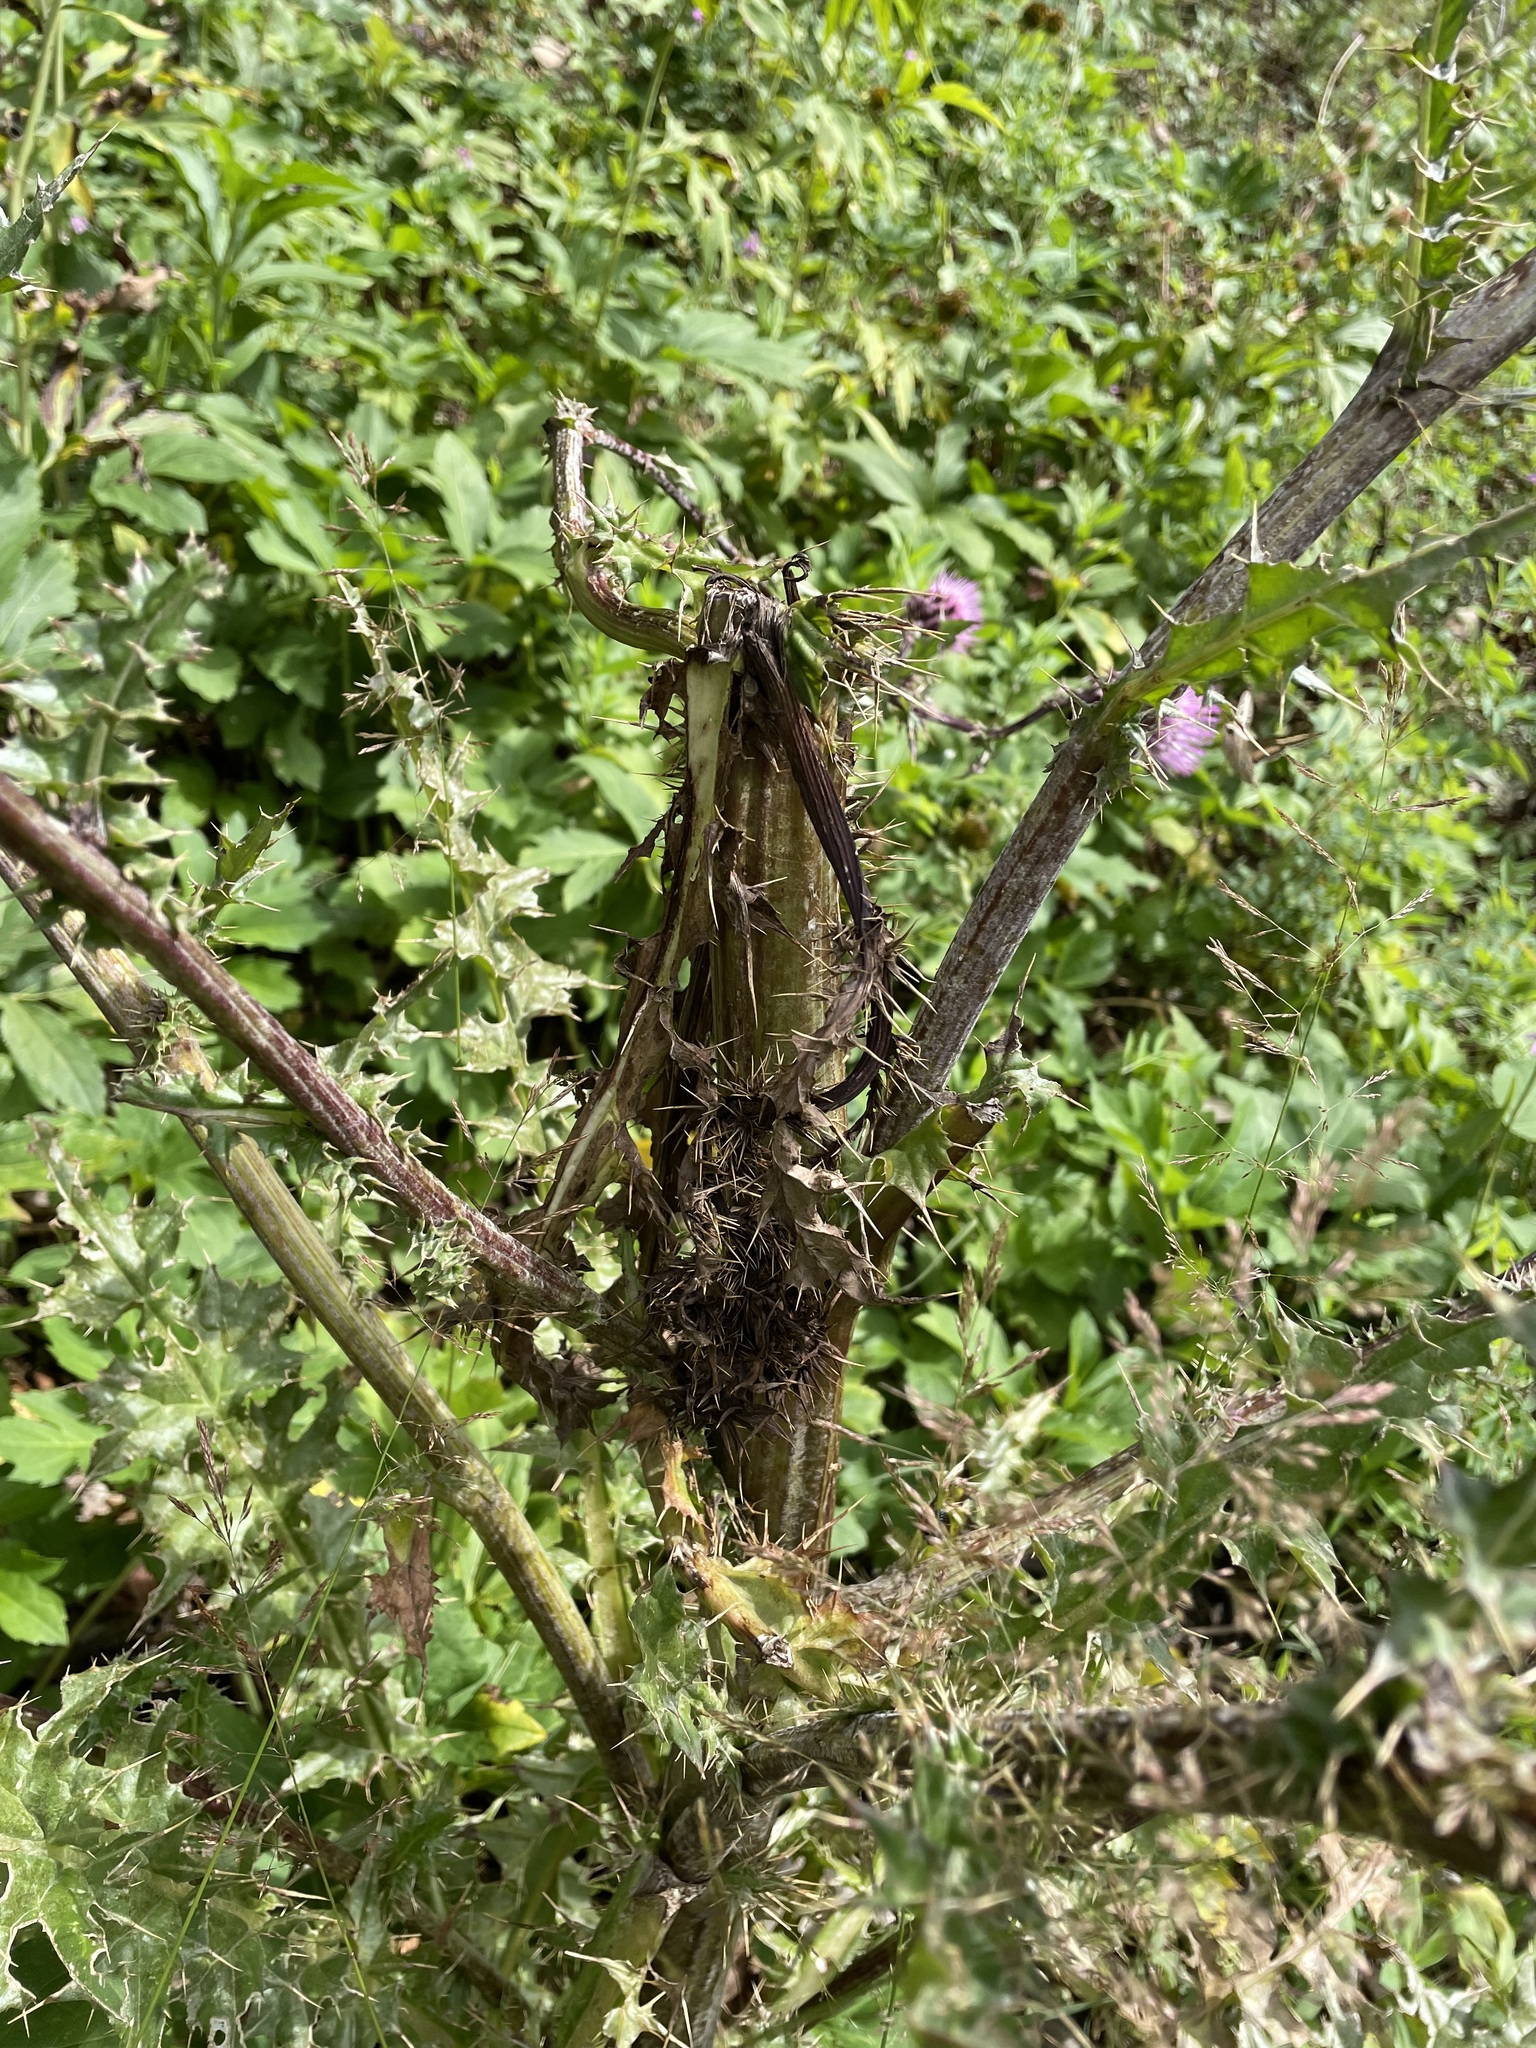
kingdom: Plantae
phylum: Tracheophyta
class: Magnoliopsida
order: Asterales
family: Asteraceae
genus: Cirsium
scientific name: Cirsium vinaceum
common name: Sacramento mountain thistle
